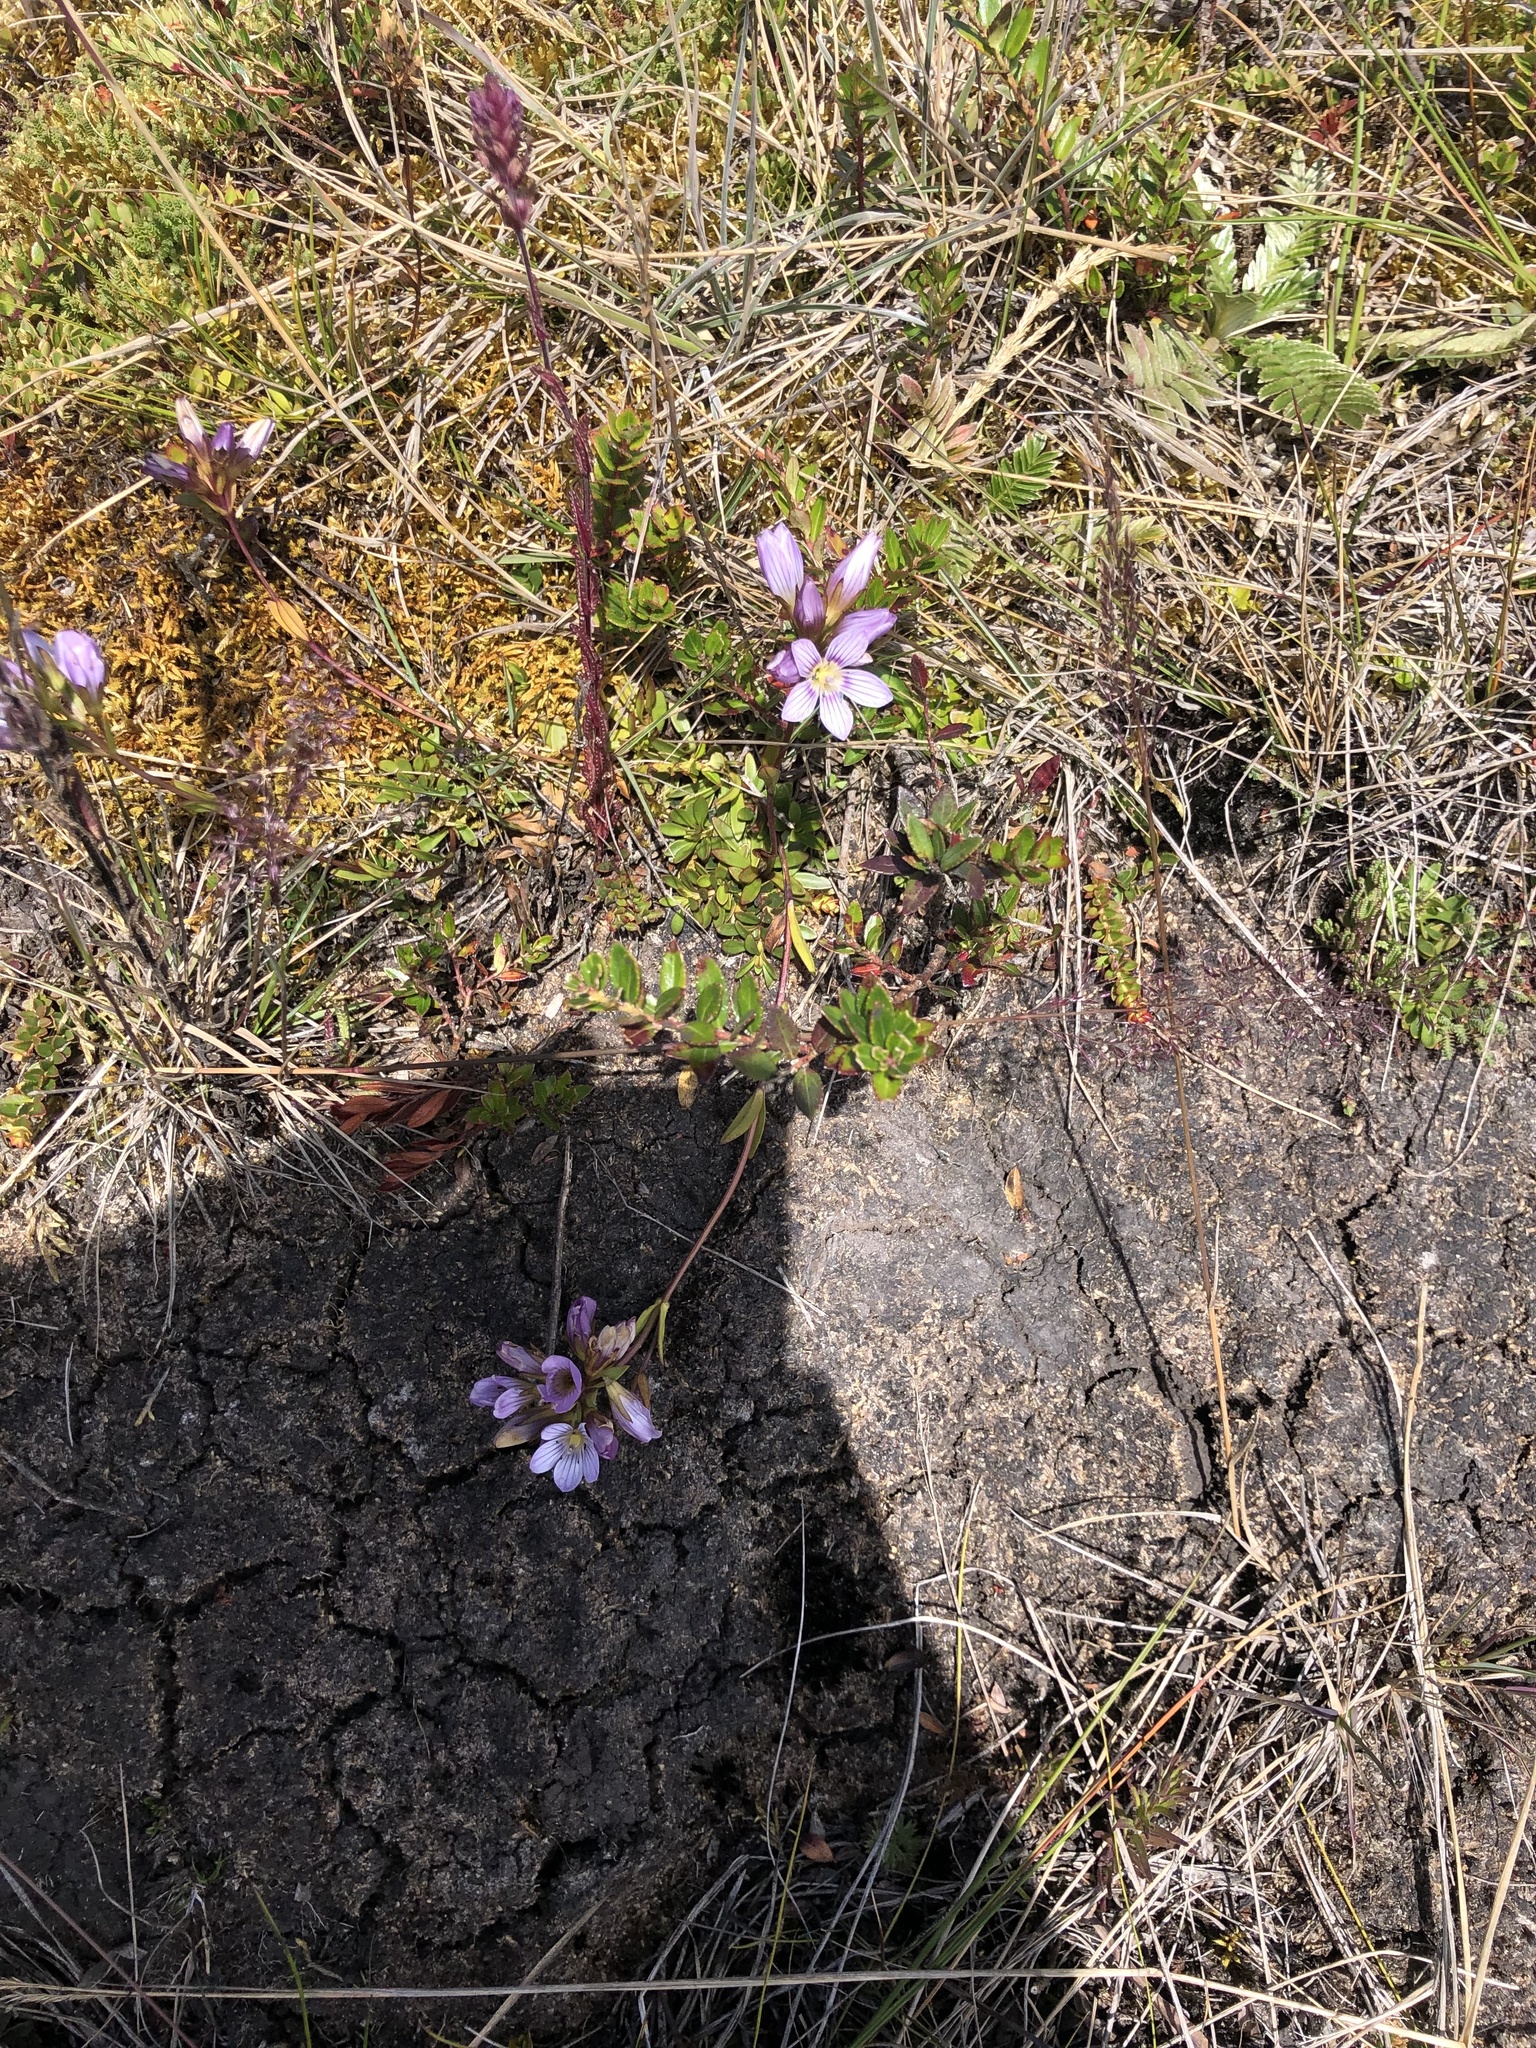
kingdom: Plantae
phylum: Tracheophyta
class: Magnoliopsida
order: Gentianales
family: Gentianaceae
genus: Gentianella
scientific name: Gentianella corymbosa
